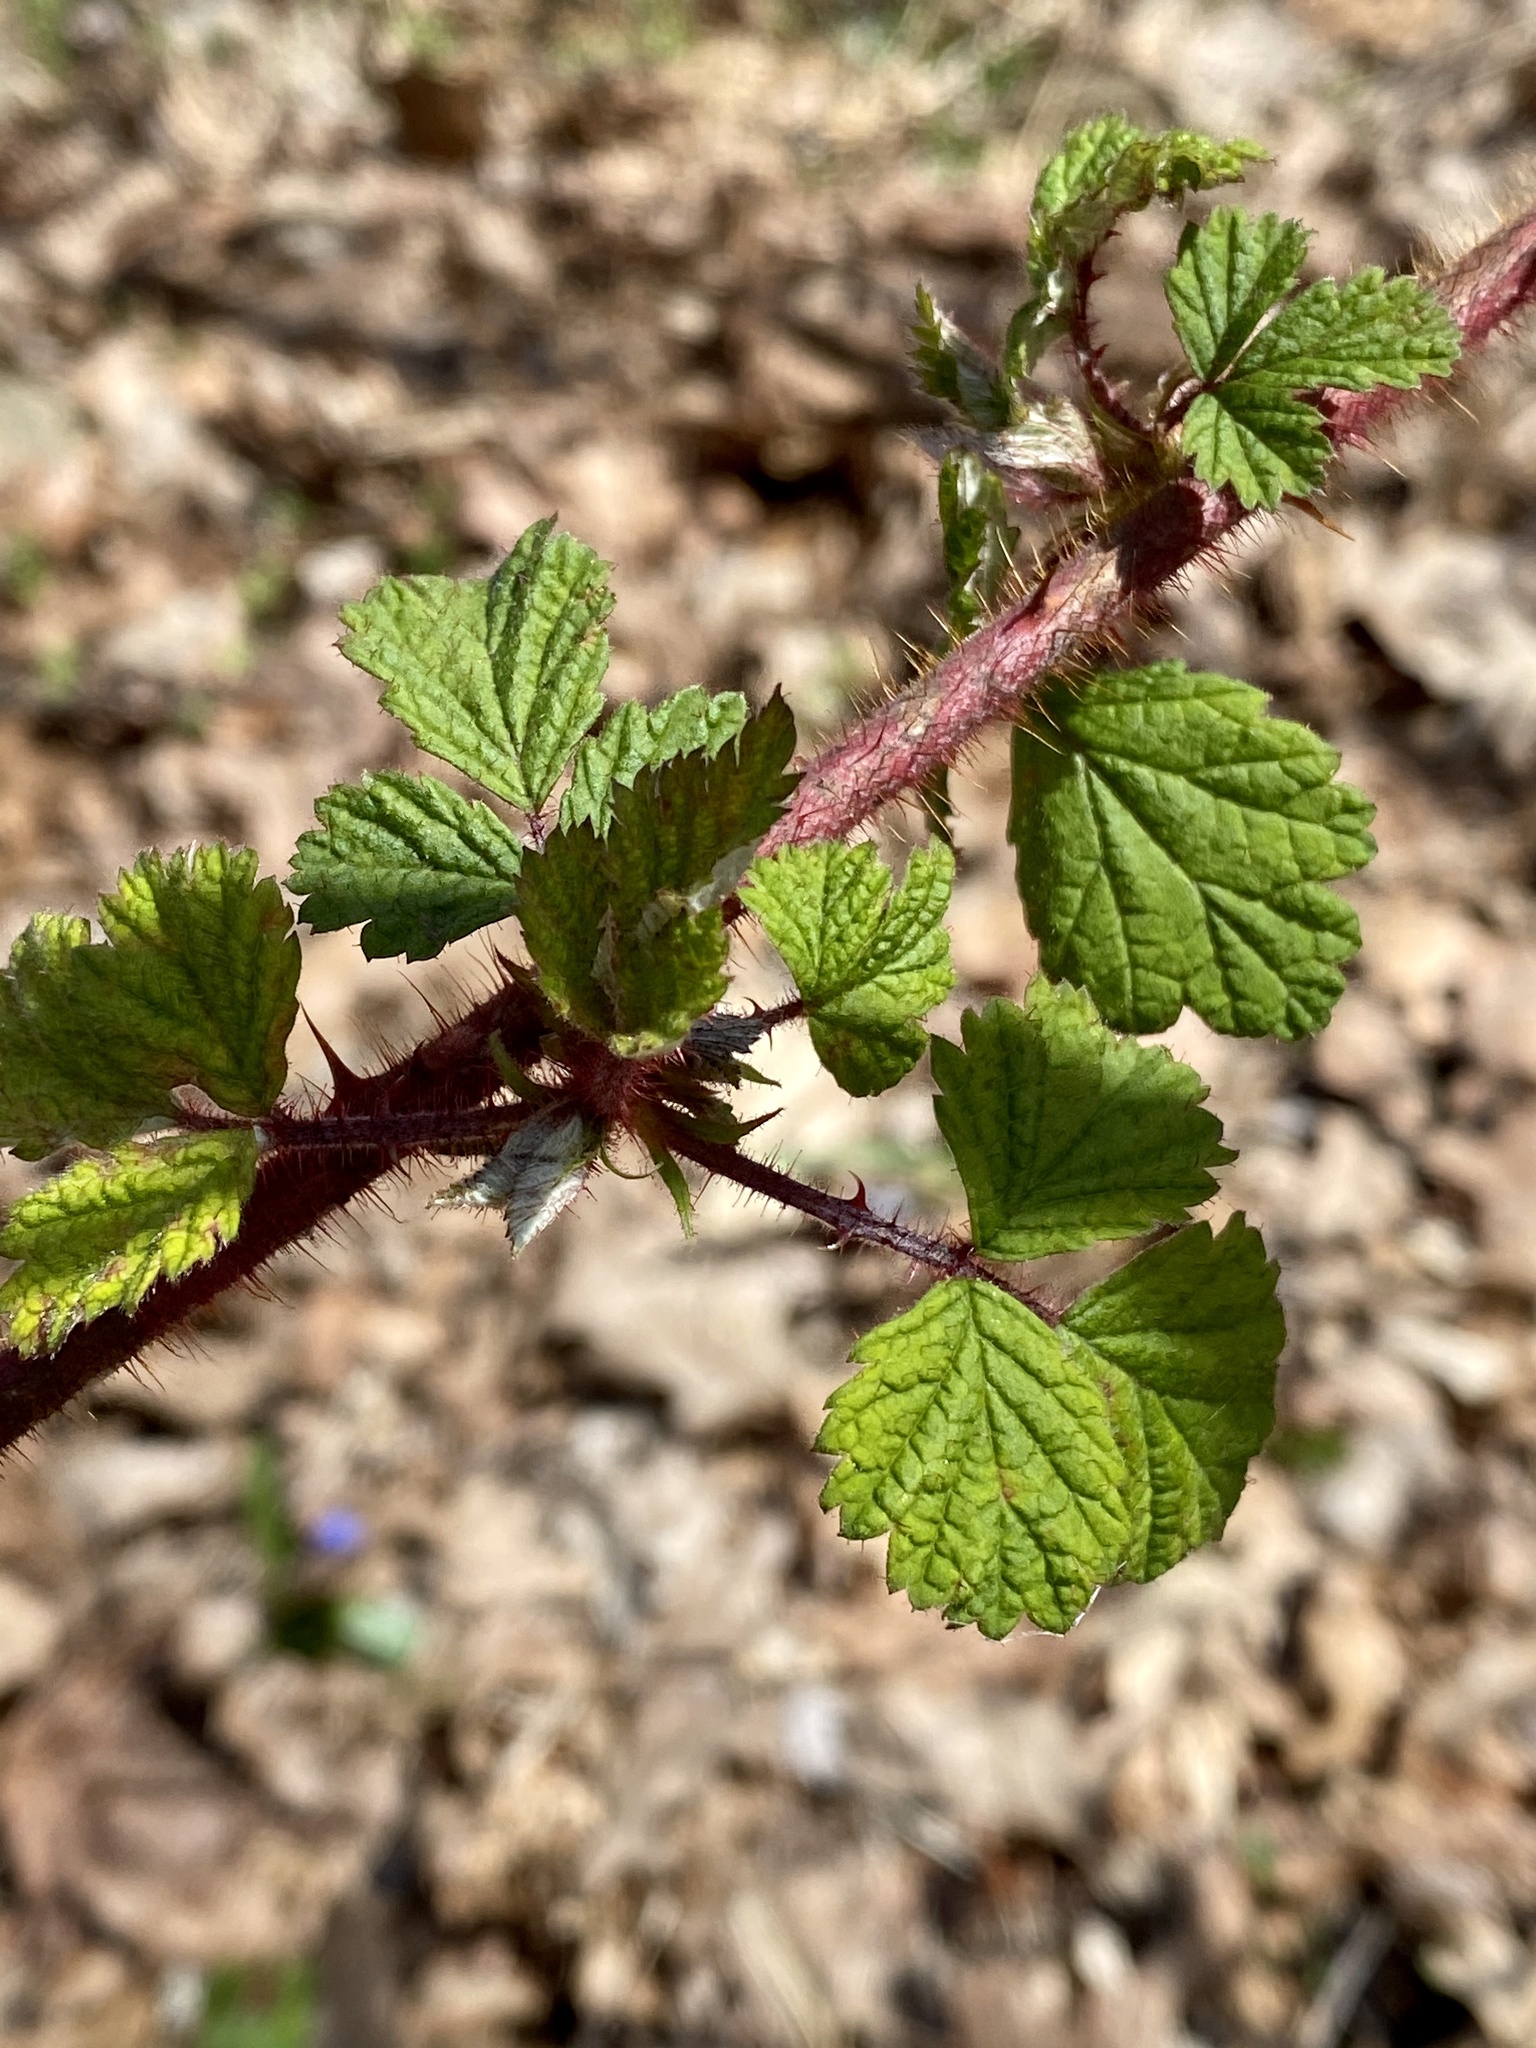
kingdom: Plantae
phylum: Tracheophyta
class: Magnoliopsida
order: Rosales
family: Rosaceae
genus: Rubus
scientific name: Rubus phoenicolasius
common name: Japanese wineberry
